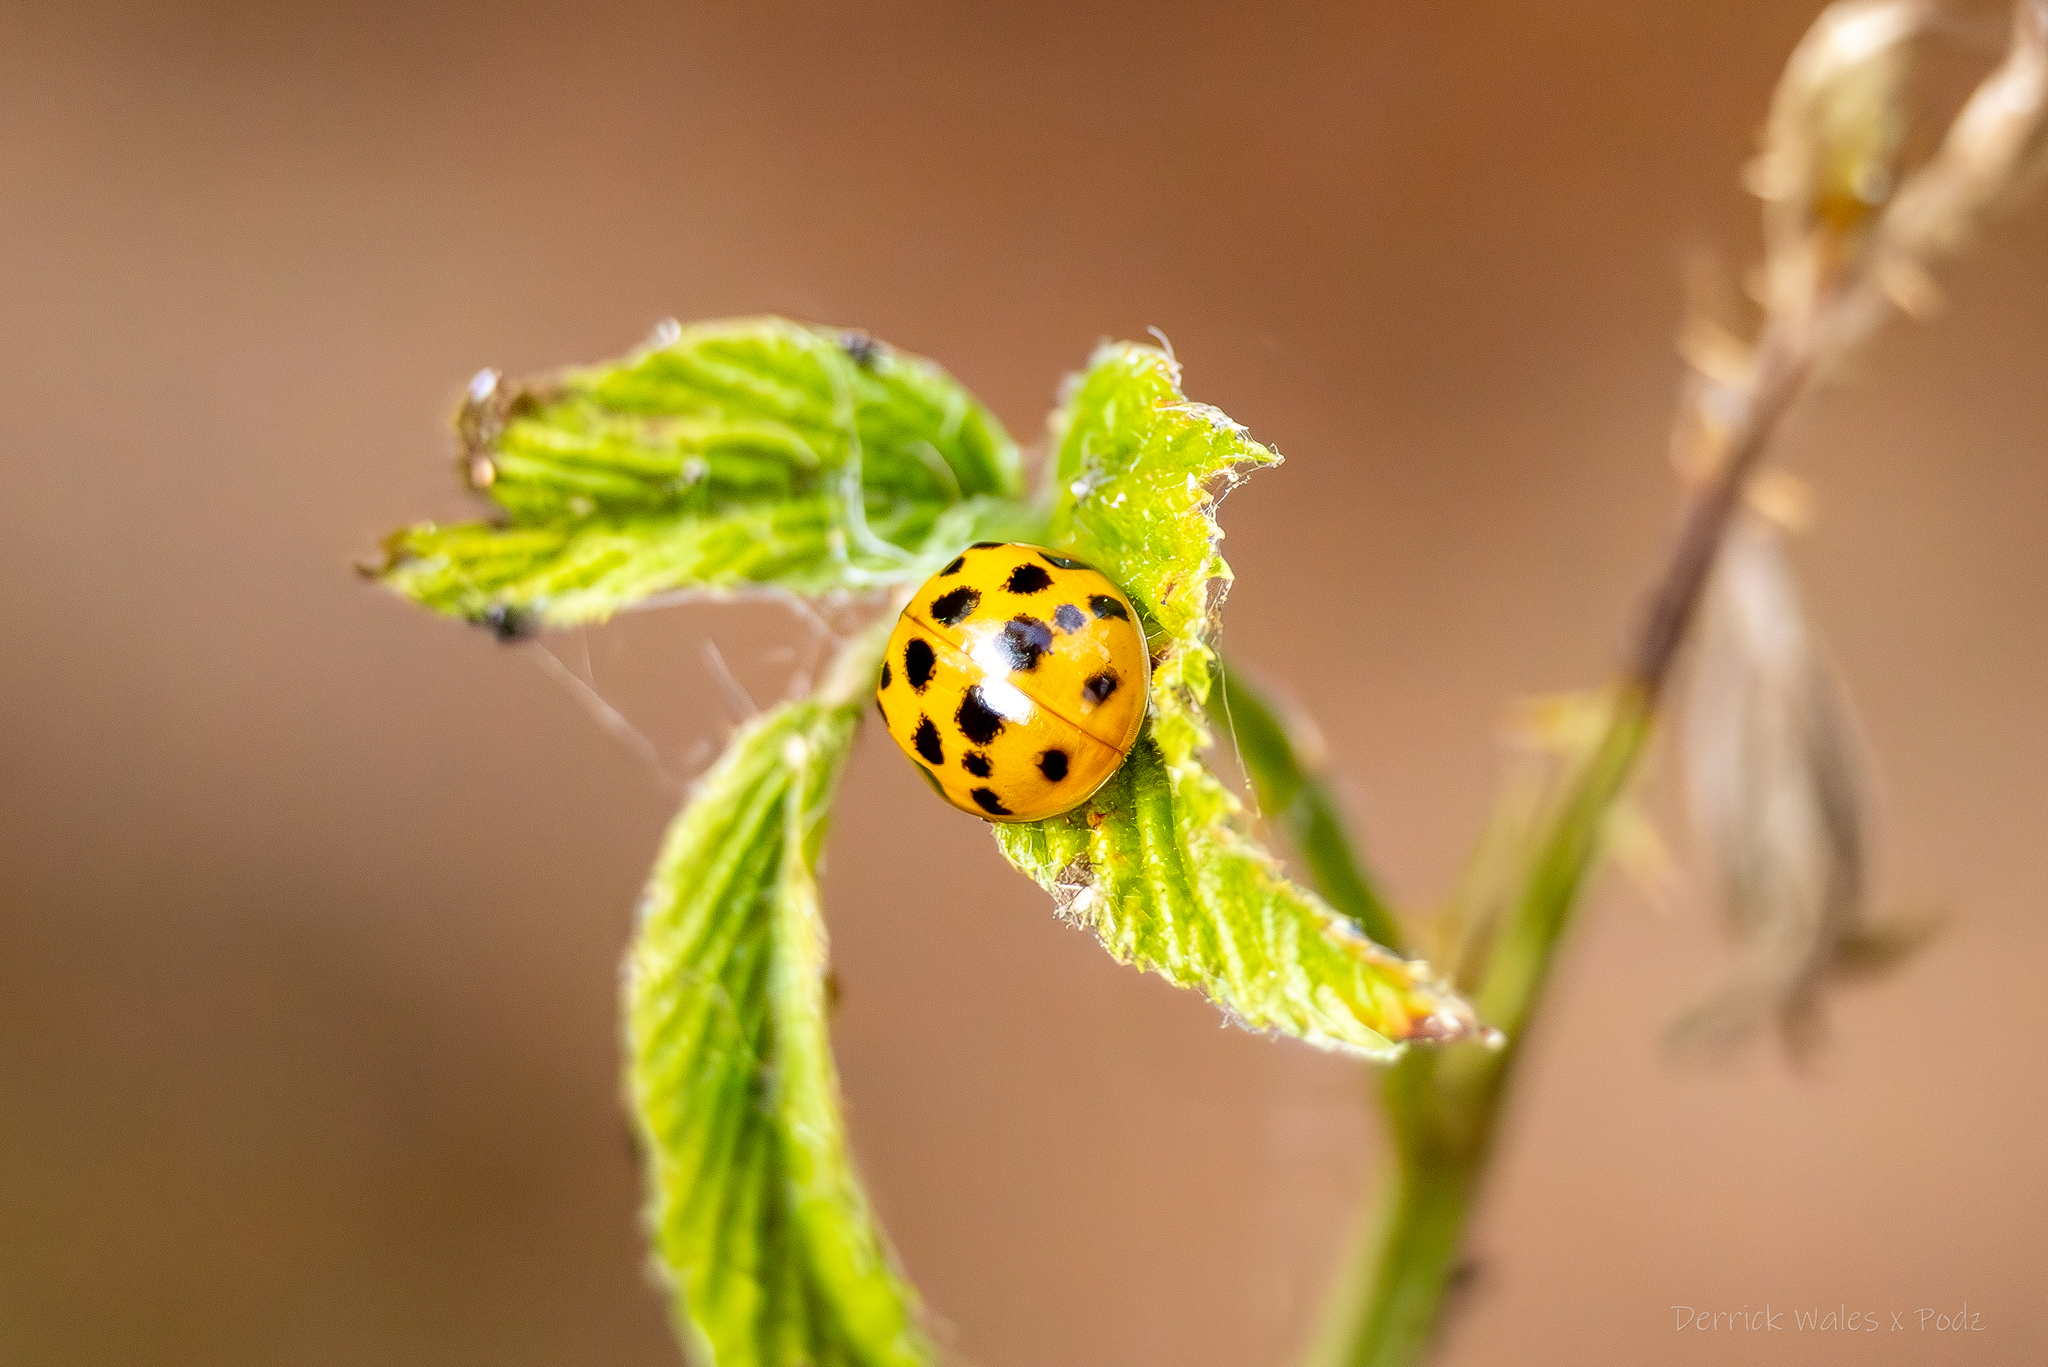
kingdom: Animalia
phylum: Arthropoda
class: Insecta
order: Coleoptera
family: Coccinellidae
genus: Harmonia
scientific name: Harmonia axyridis
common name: Harlequin ladybird
